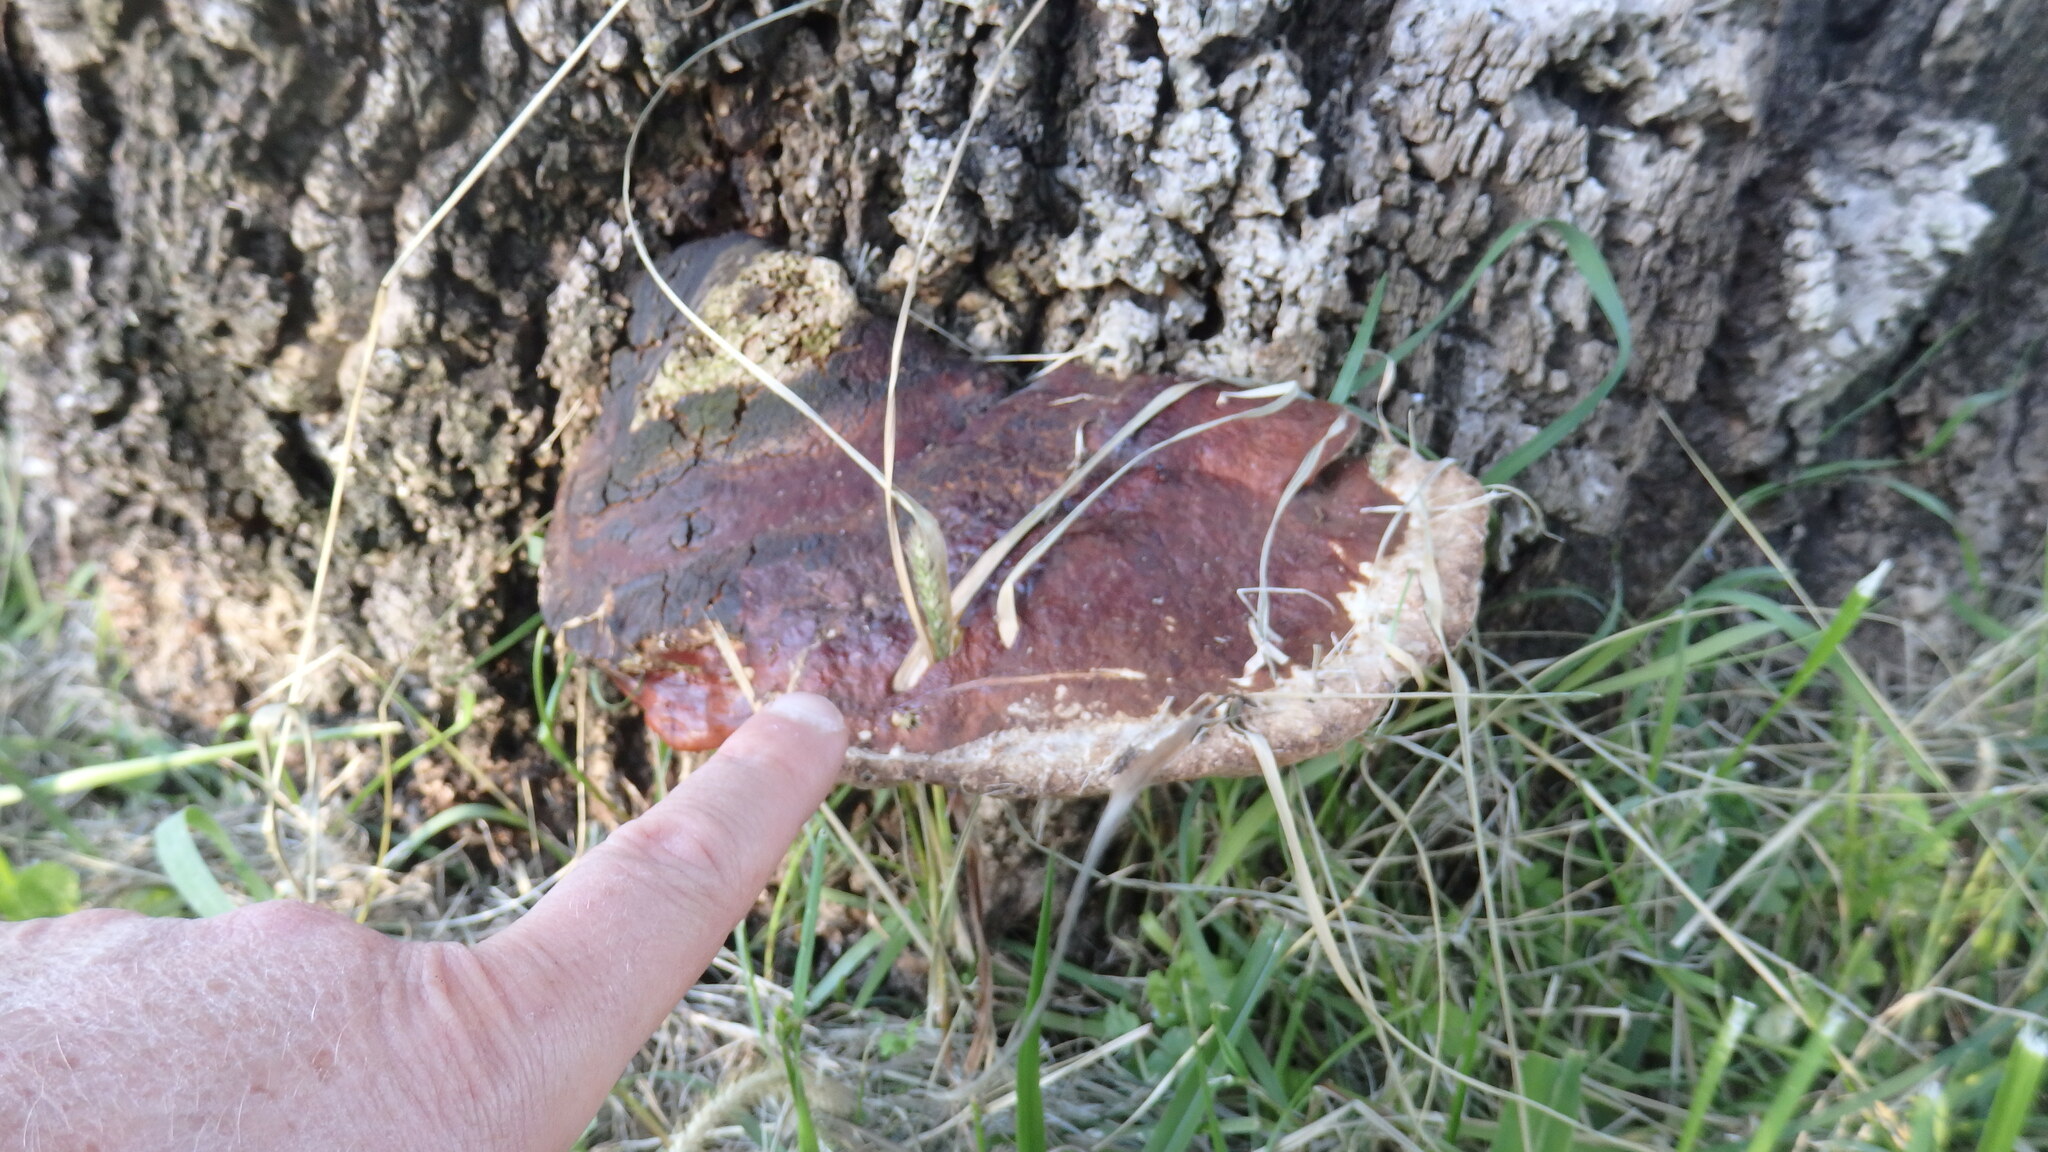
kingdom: Fungi
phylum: Basidiomycota
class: Agaricomycetes
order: Polyporales
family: Polyporaceae
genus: Ganoderma
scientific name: Ganoderma resinaceum
